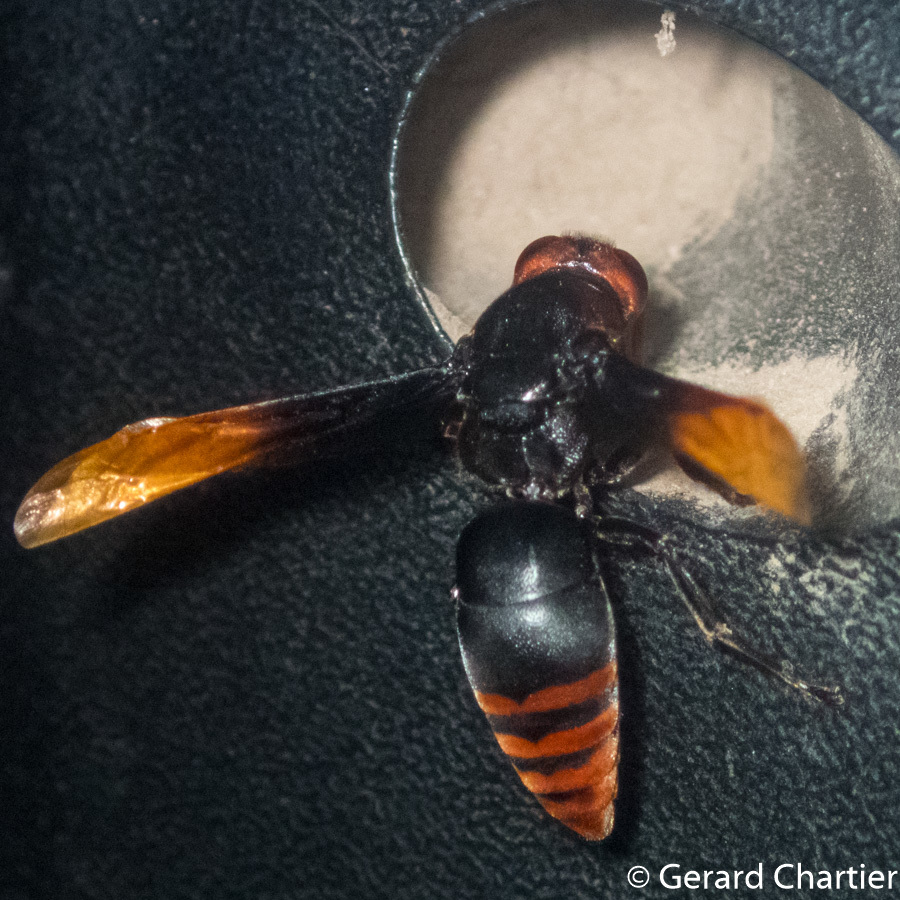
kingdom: Animalia
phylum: Arthropoda
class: Insecta
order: Hymenoptera
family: Eumenidae
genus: Rhynchium
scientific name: Rhynchium haemorrhoidale
